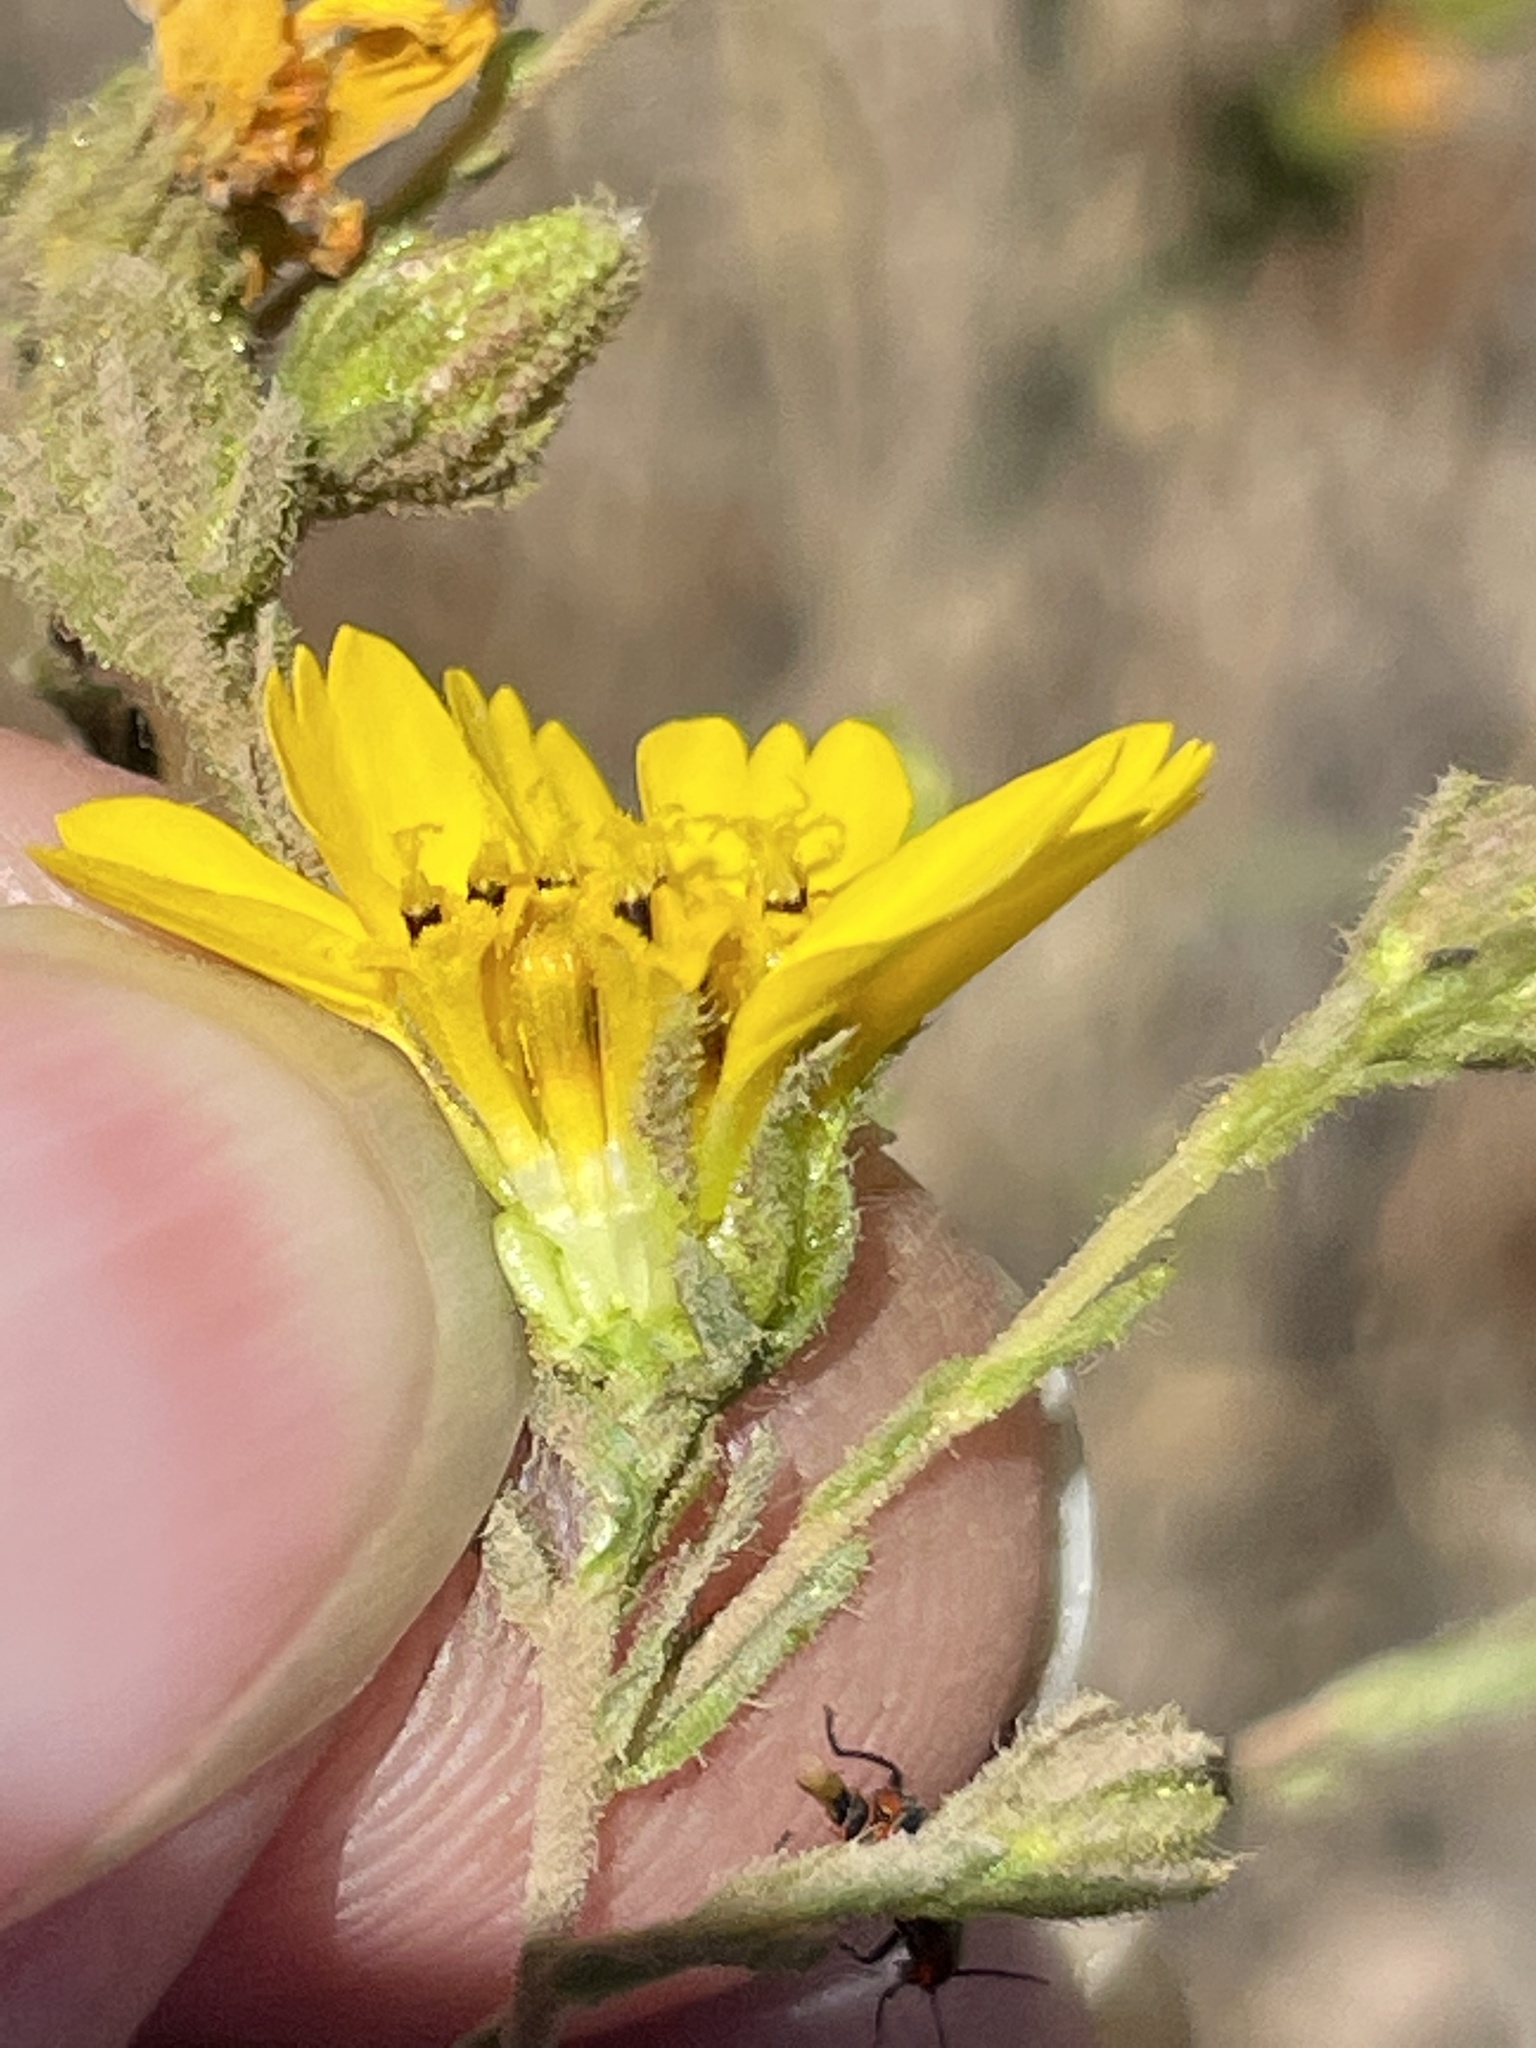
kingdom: Plantae
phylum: Tracheophyta
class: Magnoliopsida
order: Asterales
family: Asteraceae
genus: Deinandra
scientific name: Deinandra conjugens
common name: Otay tarplant
